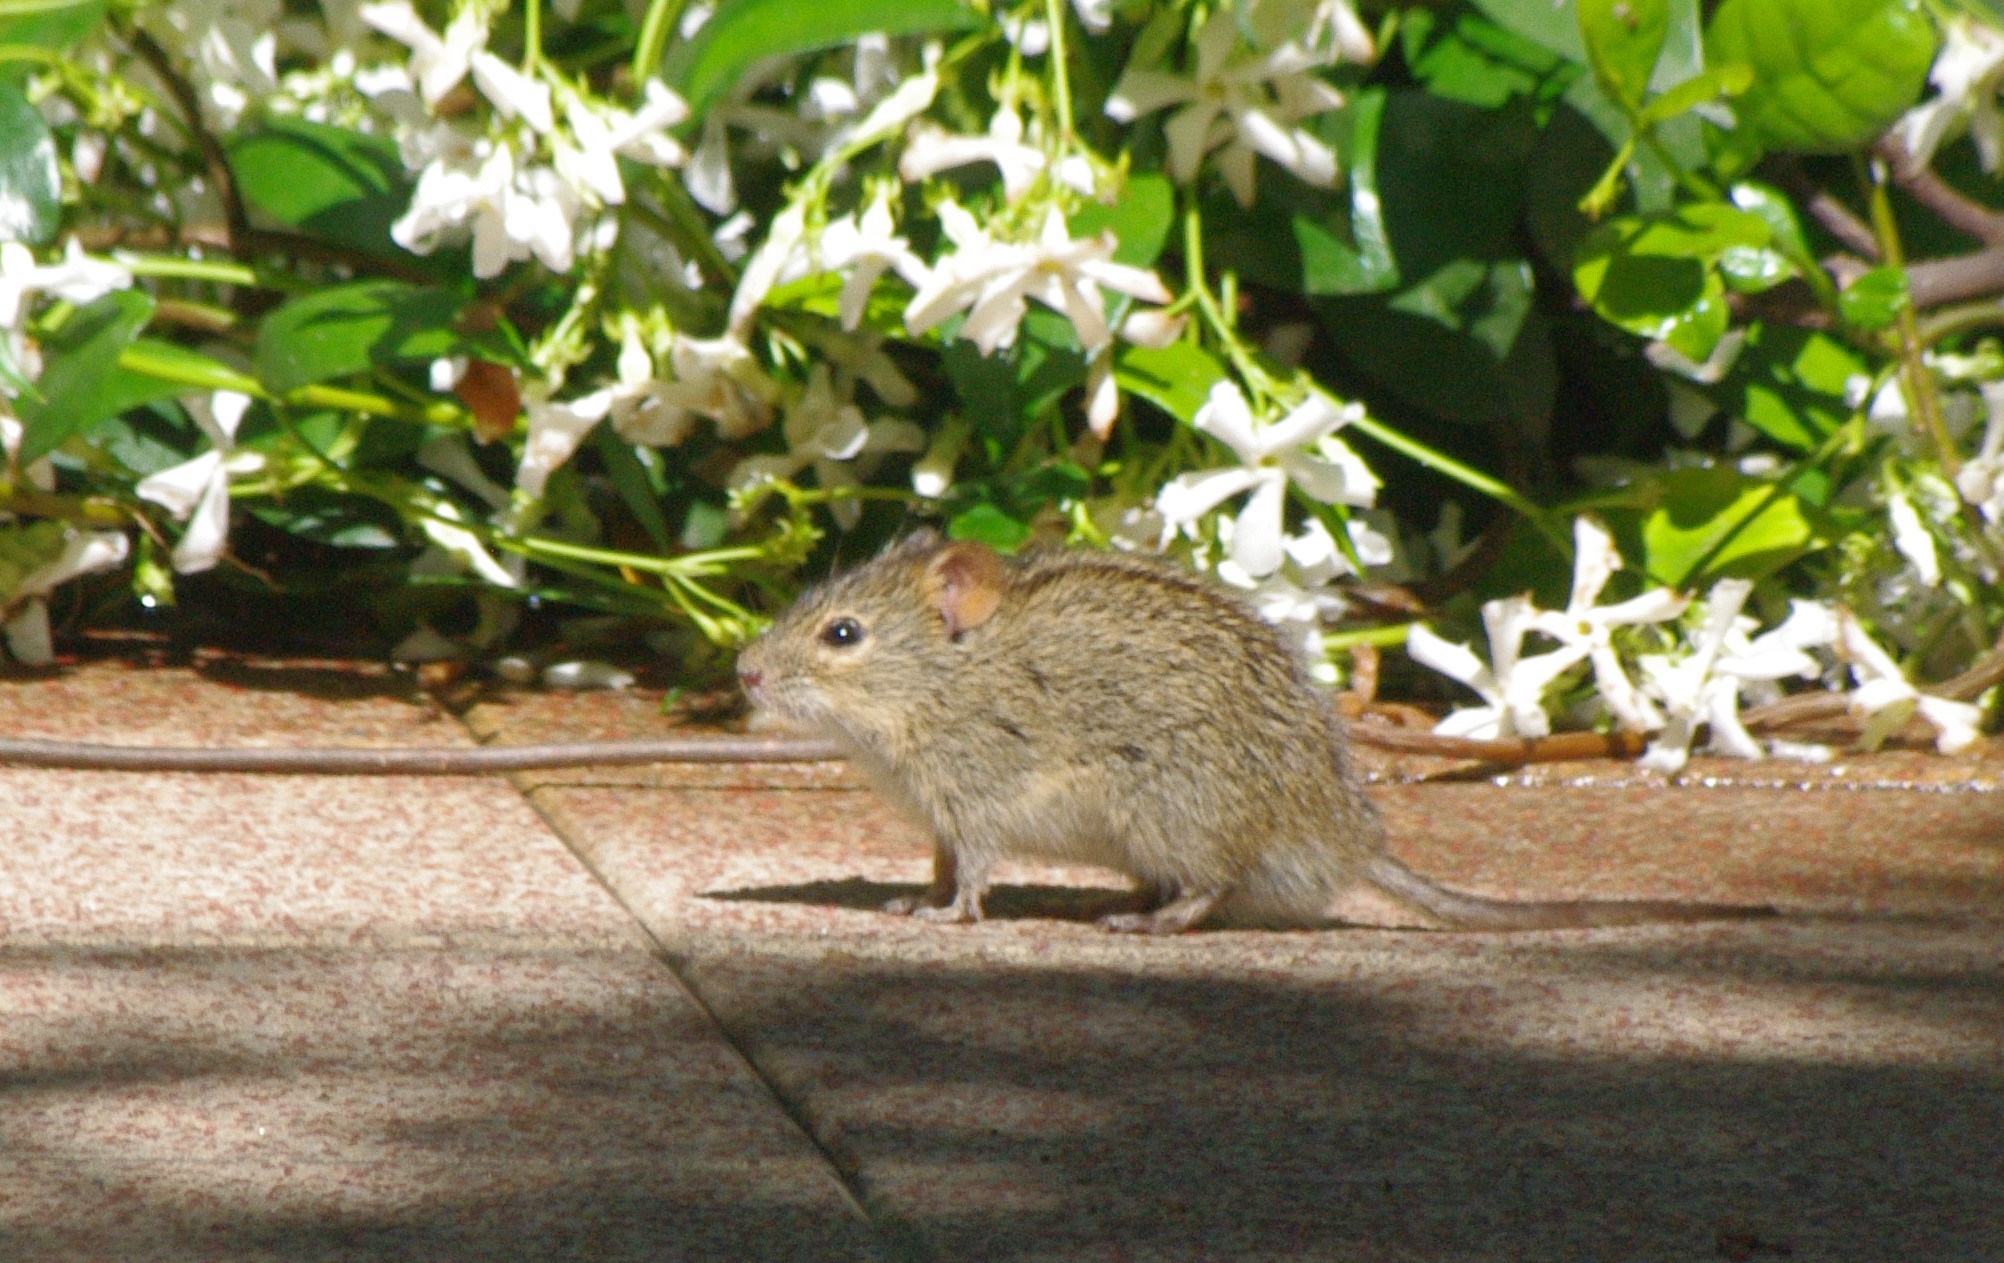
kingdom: Animalia
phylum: Chordata
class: Mammalia
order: Rodentia
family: Muridae
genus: Rhabdomys
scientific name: Rhabdomys dilectus
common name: Mesic four-striped grass rat
